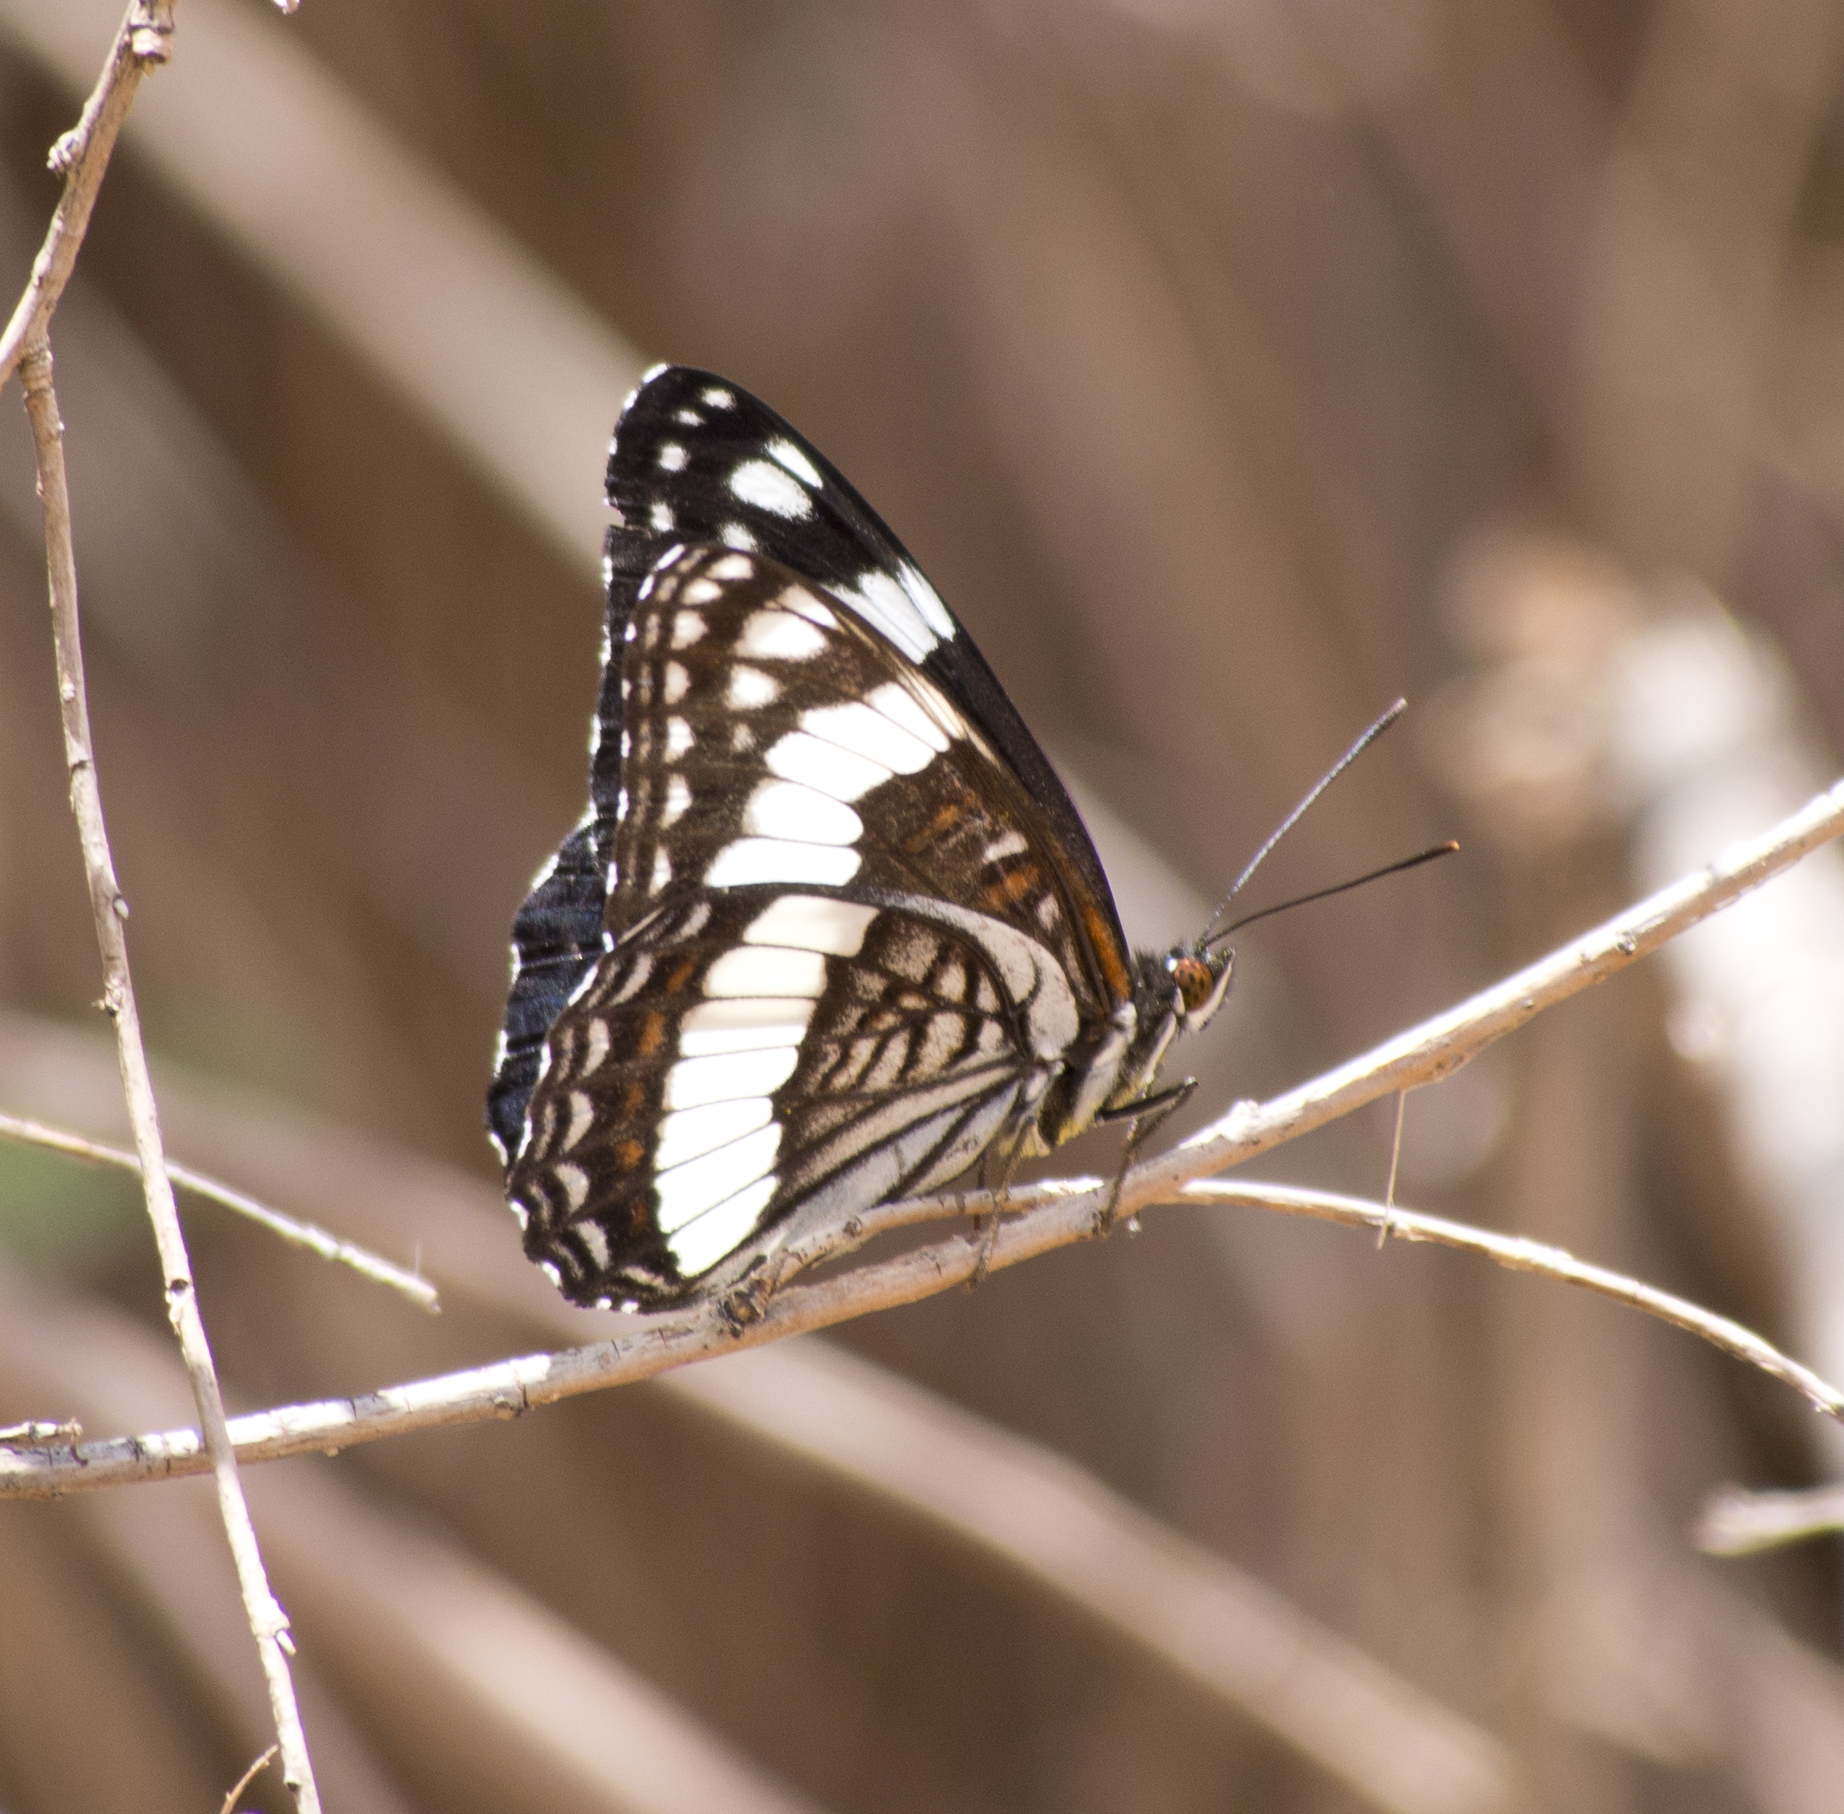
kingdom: Animalia
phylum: Arthropoda
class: Insecta
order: Lepidoptera
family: Nymphalidae
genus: Limenitis
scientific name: Limenitis weidemeyerii
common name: Weidemeyer's admiral
